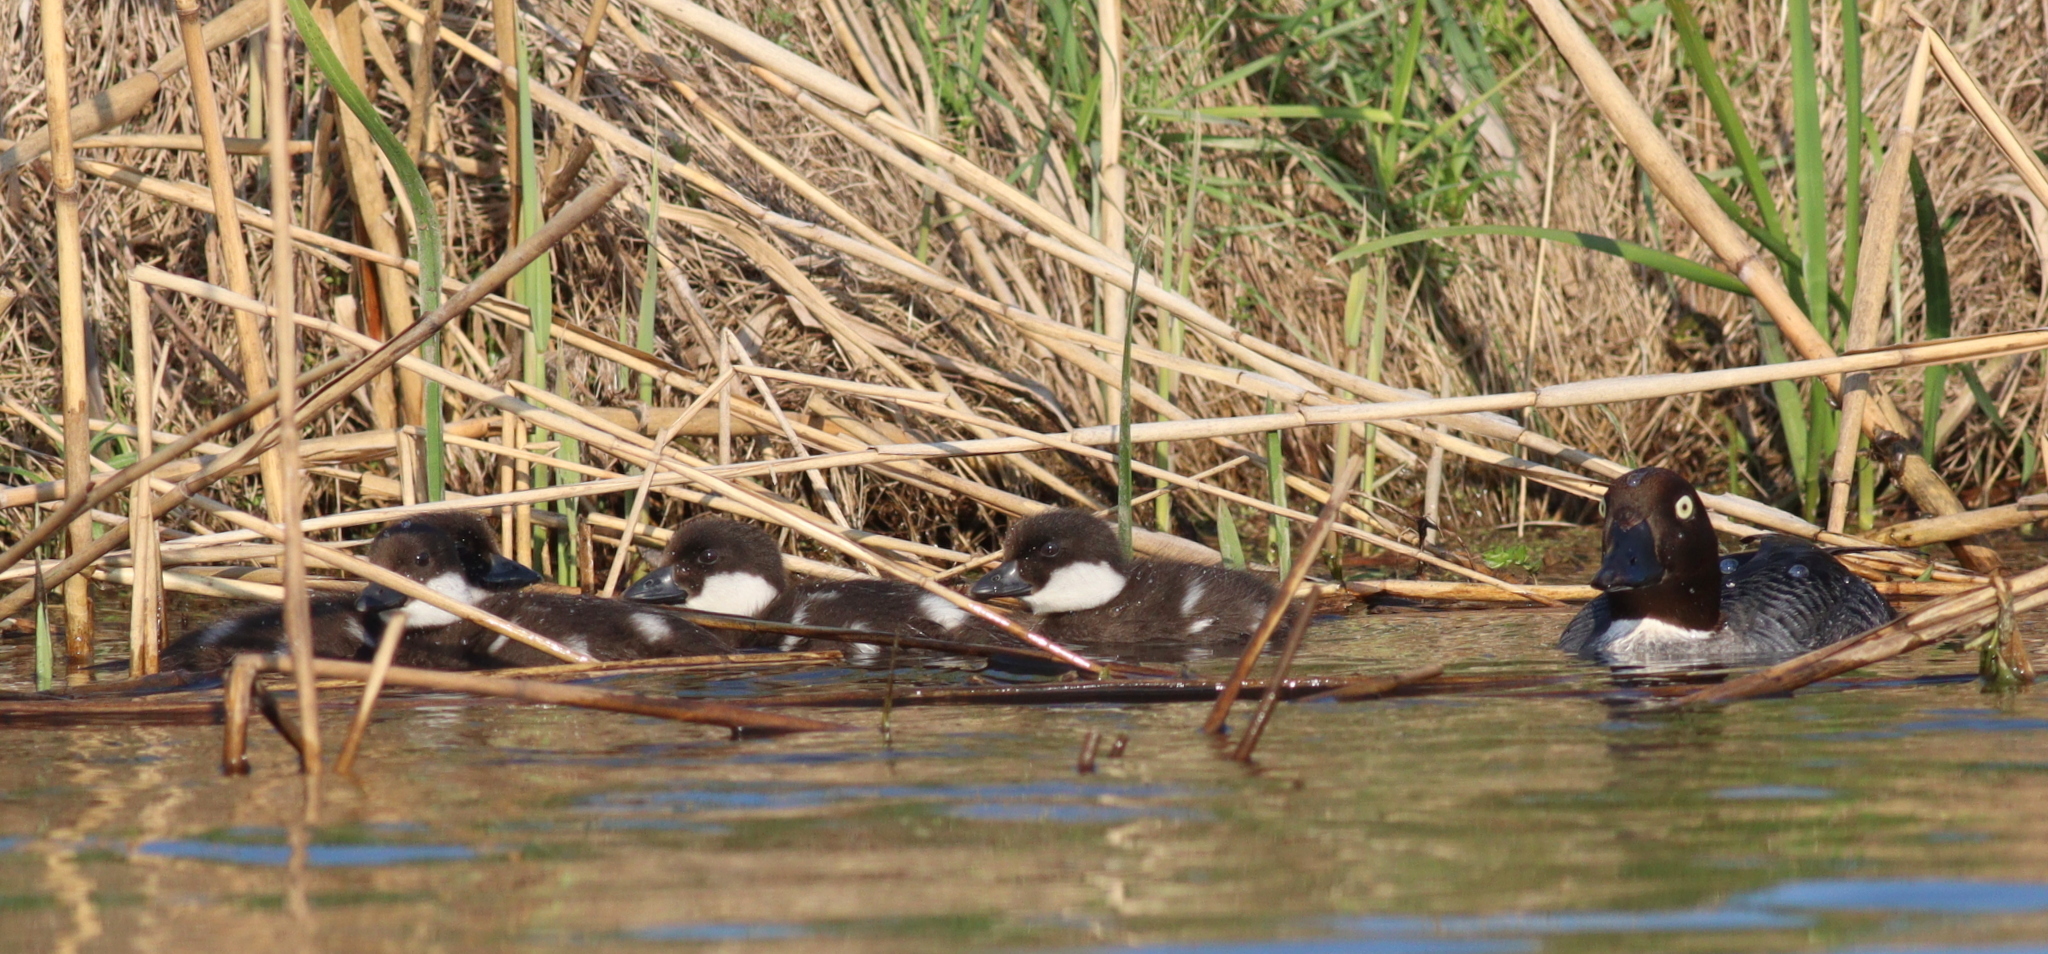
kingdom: Animalia
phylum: Chordata
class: Aves
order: Anseriformes
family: Anatidae
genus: Bucephala
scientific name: Bucephala clangula
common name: Common goldeneye
